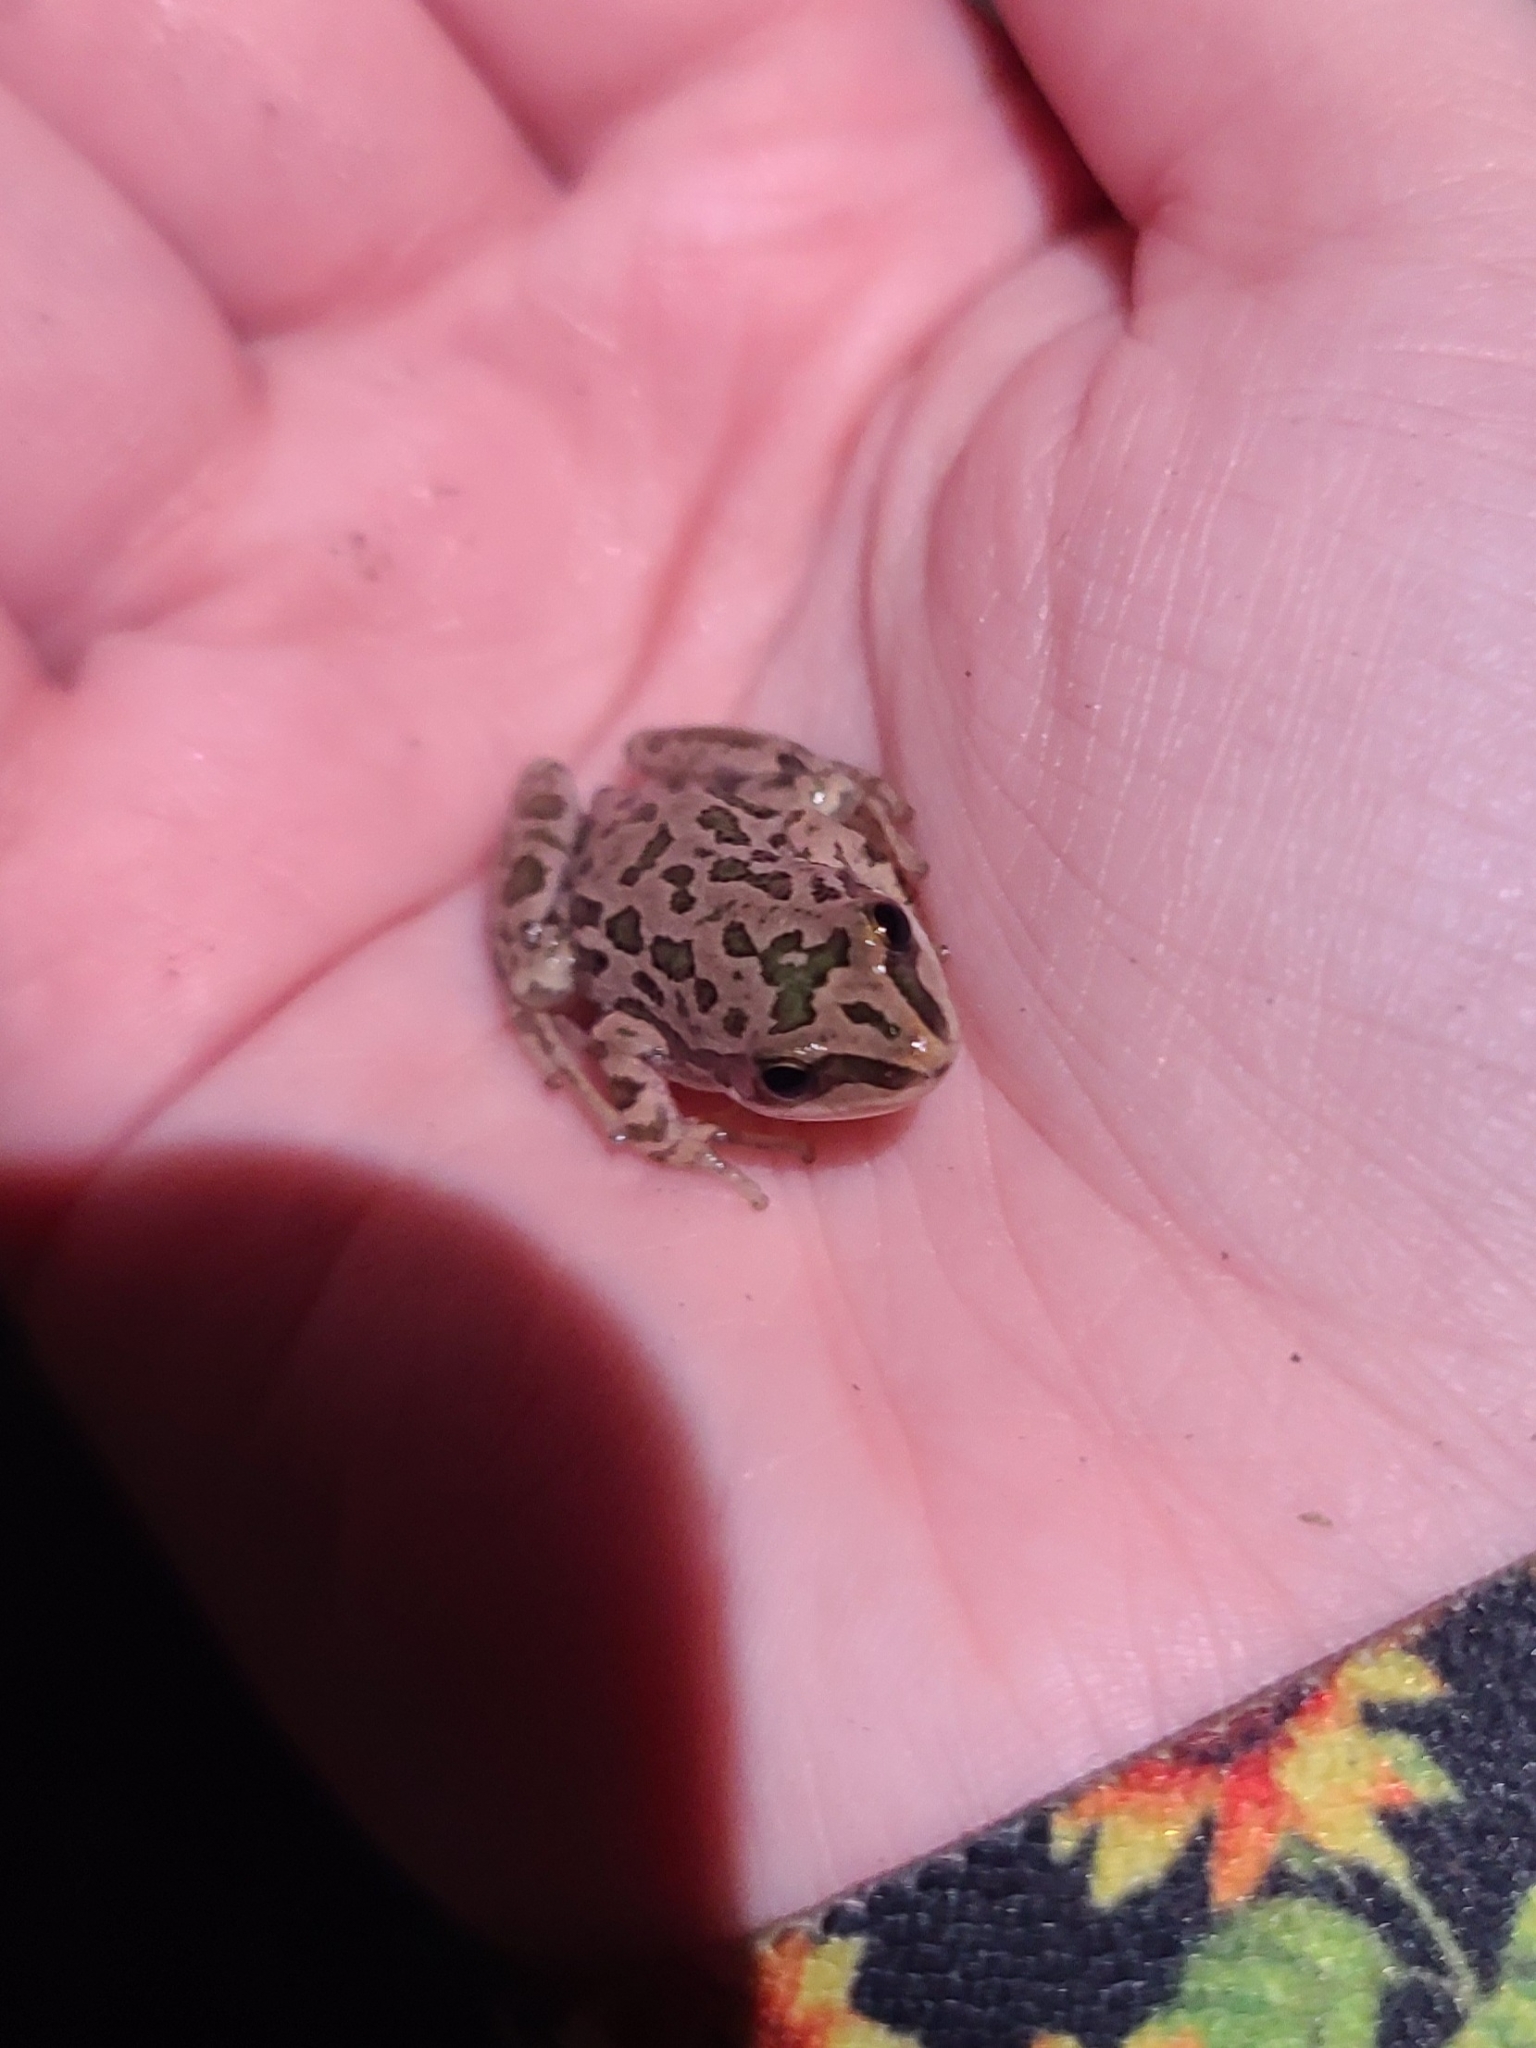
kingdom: Animalia
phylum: Chordata
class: Amphibia
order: Anura
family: Hylidae
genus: Pseudacris
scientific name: Pseudacris clarkii
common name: Spotted chorus frog
